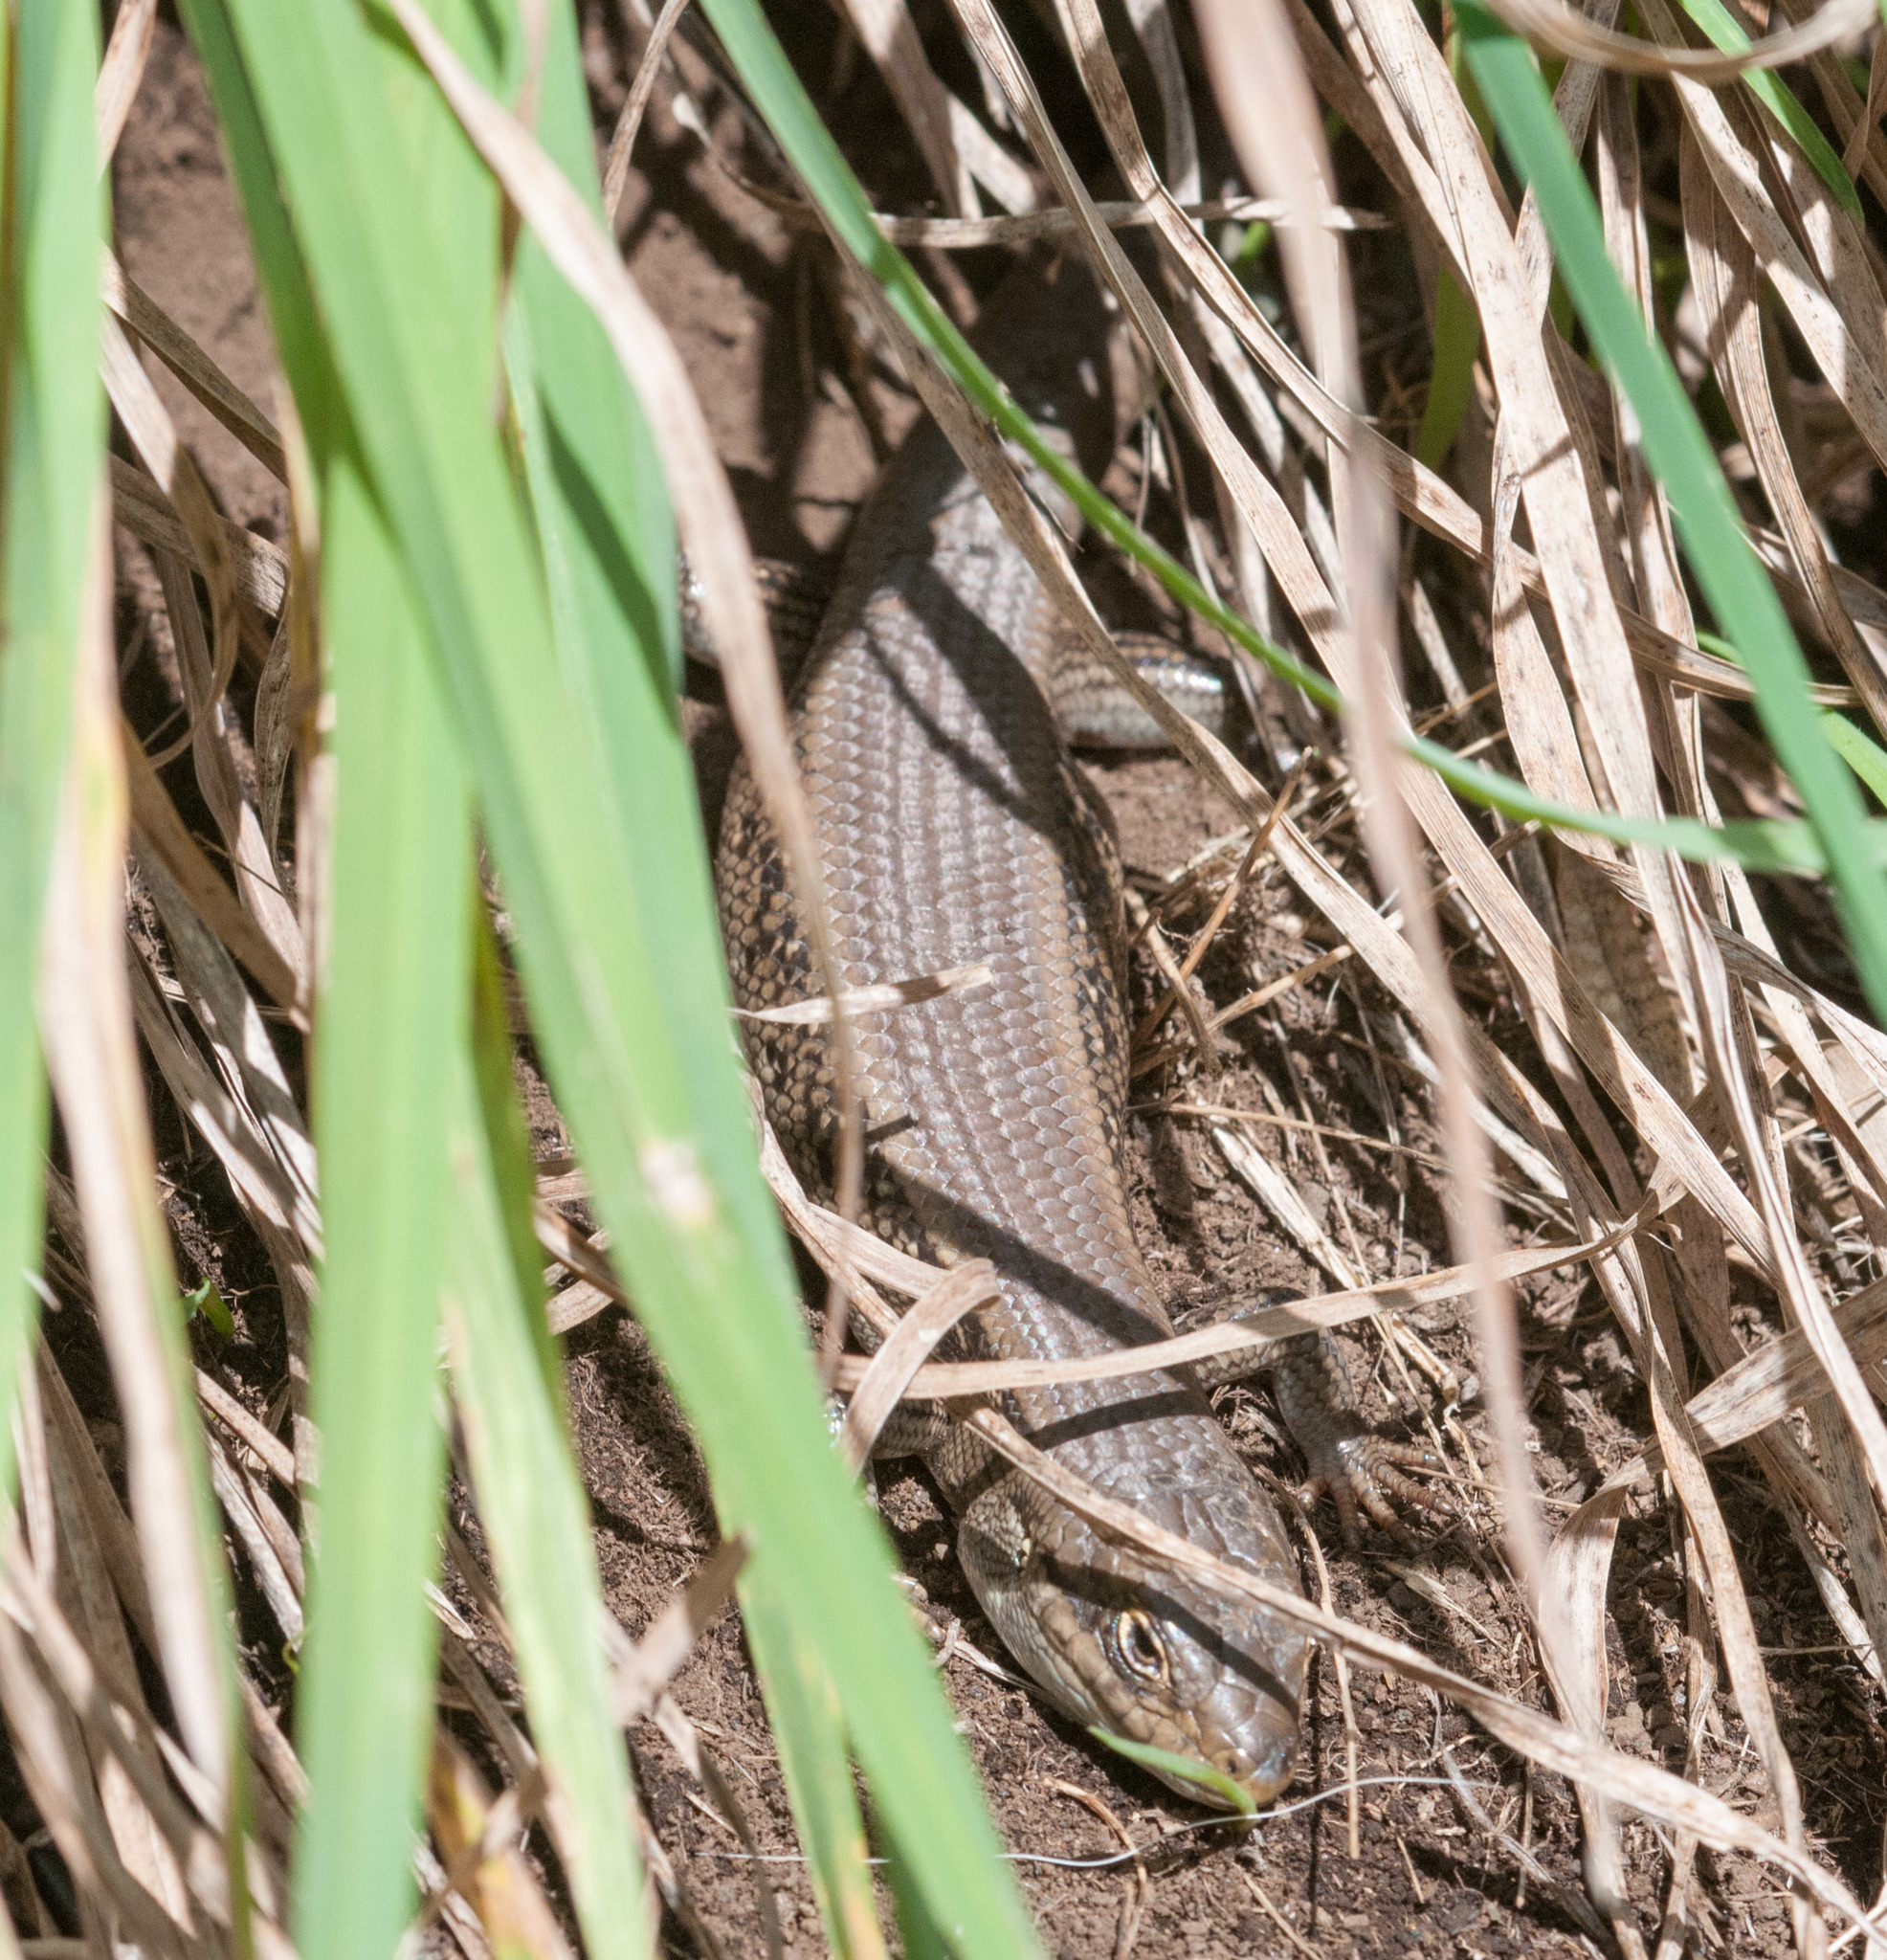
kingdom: Animalia
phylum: Chordata
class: Squamata
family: Scincidae
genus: Liopholis
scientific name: Liopholis whitii
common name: White's rock-skink
